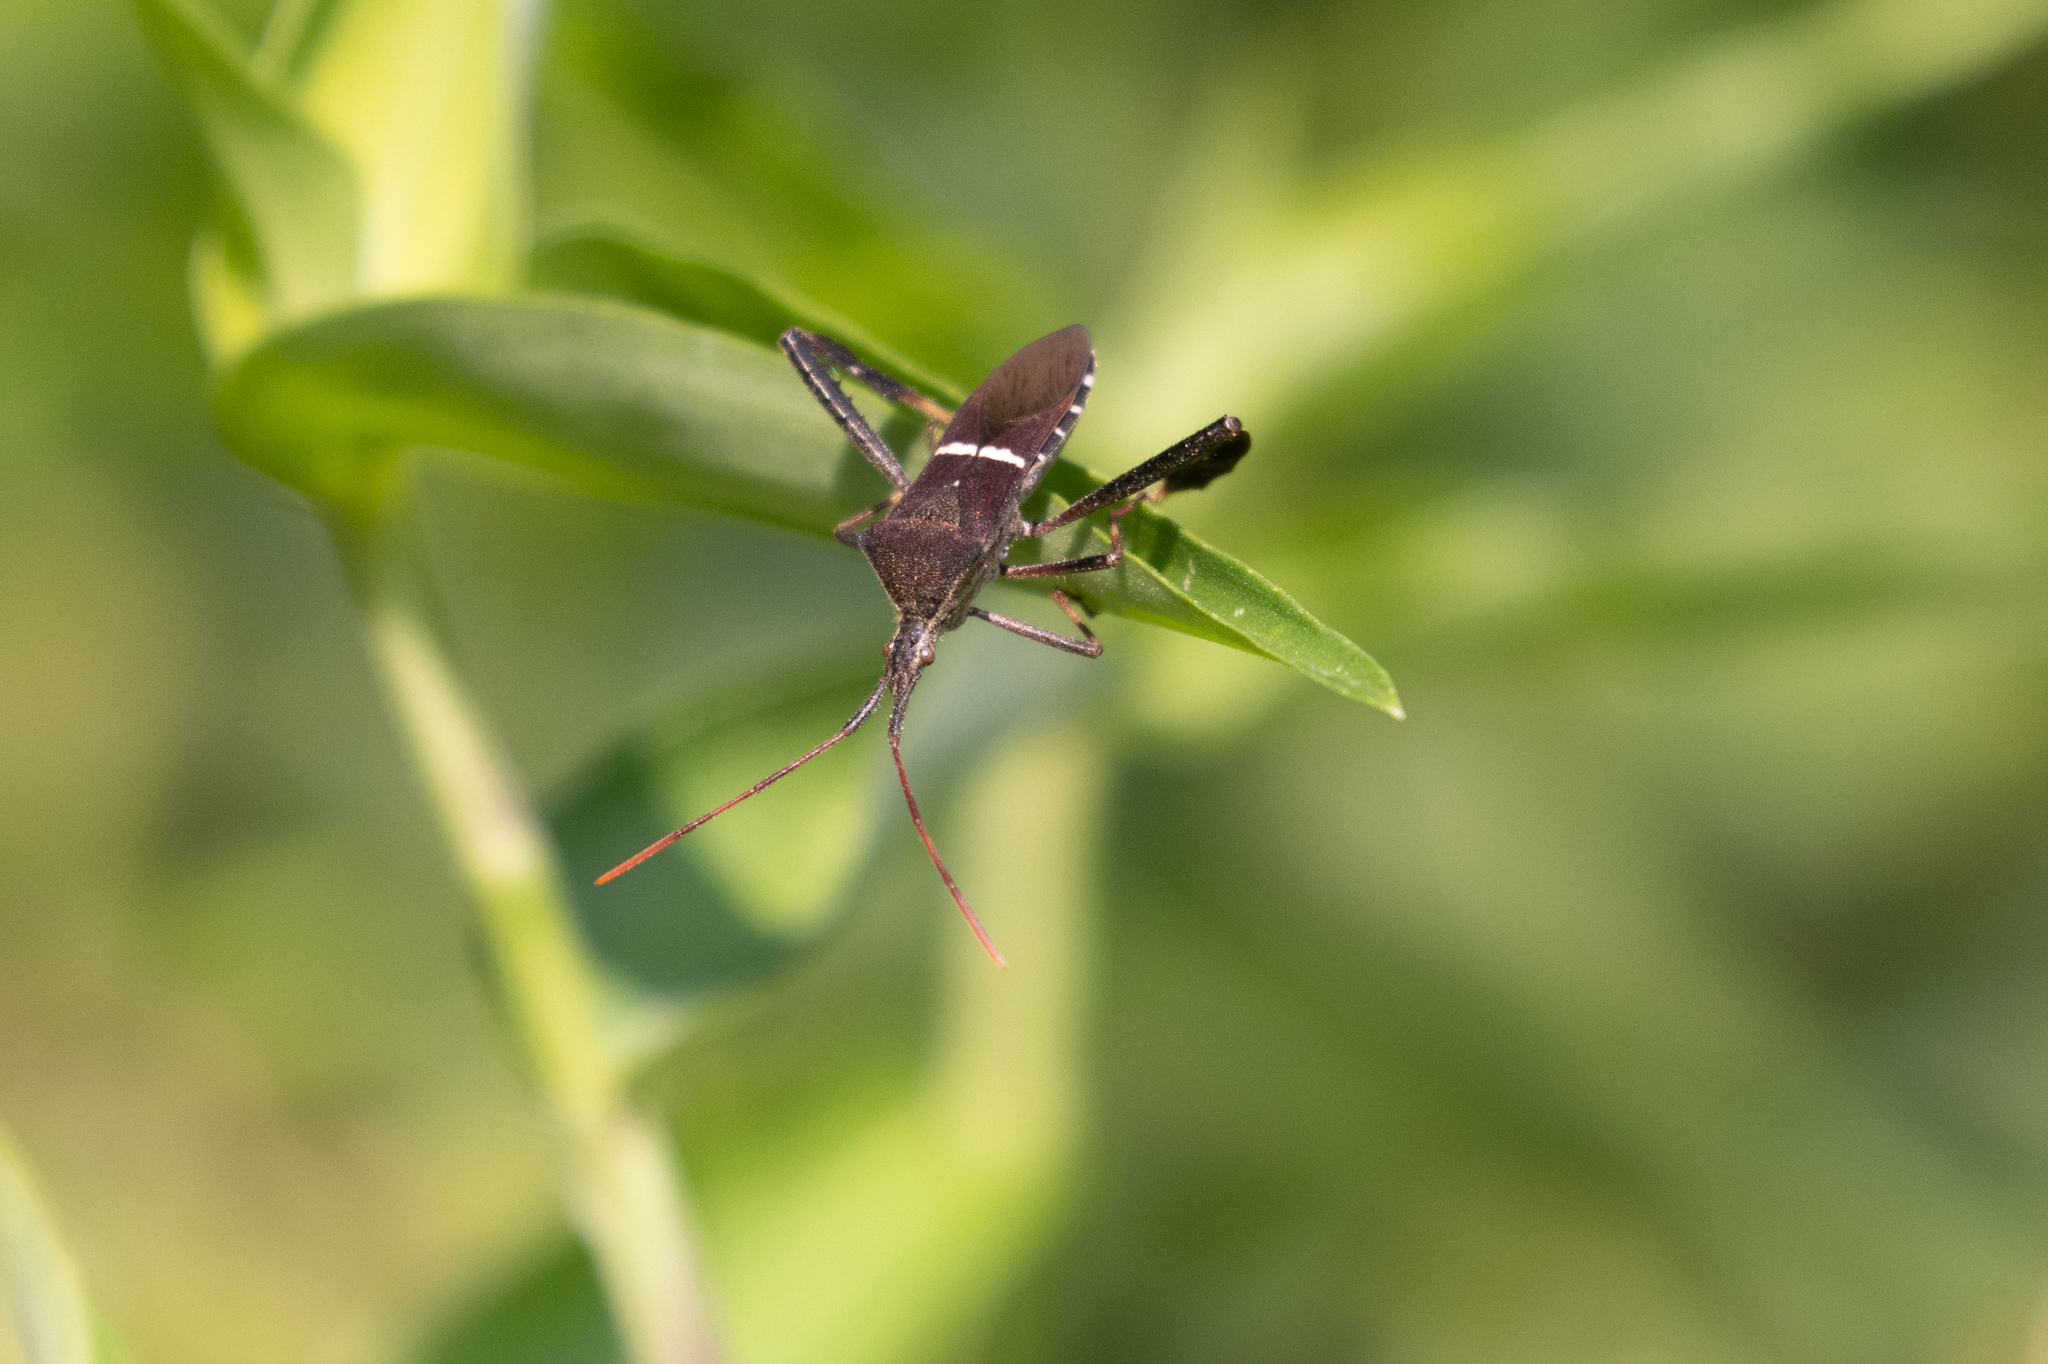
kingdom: Animalia
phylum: Arthropoda
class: Insecta
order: Hemiptera
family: Coreidae
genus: Leptoglossus
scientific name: Leptoglossus phyllopus
